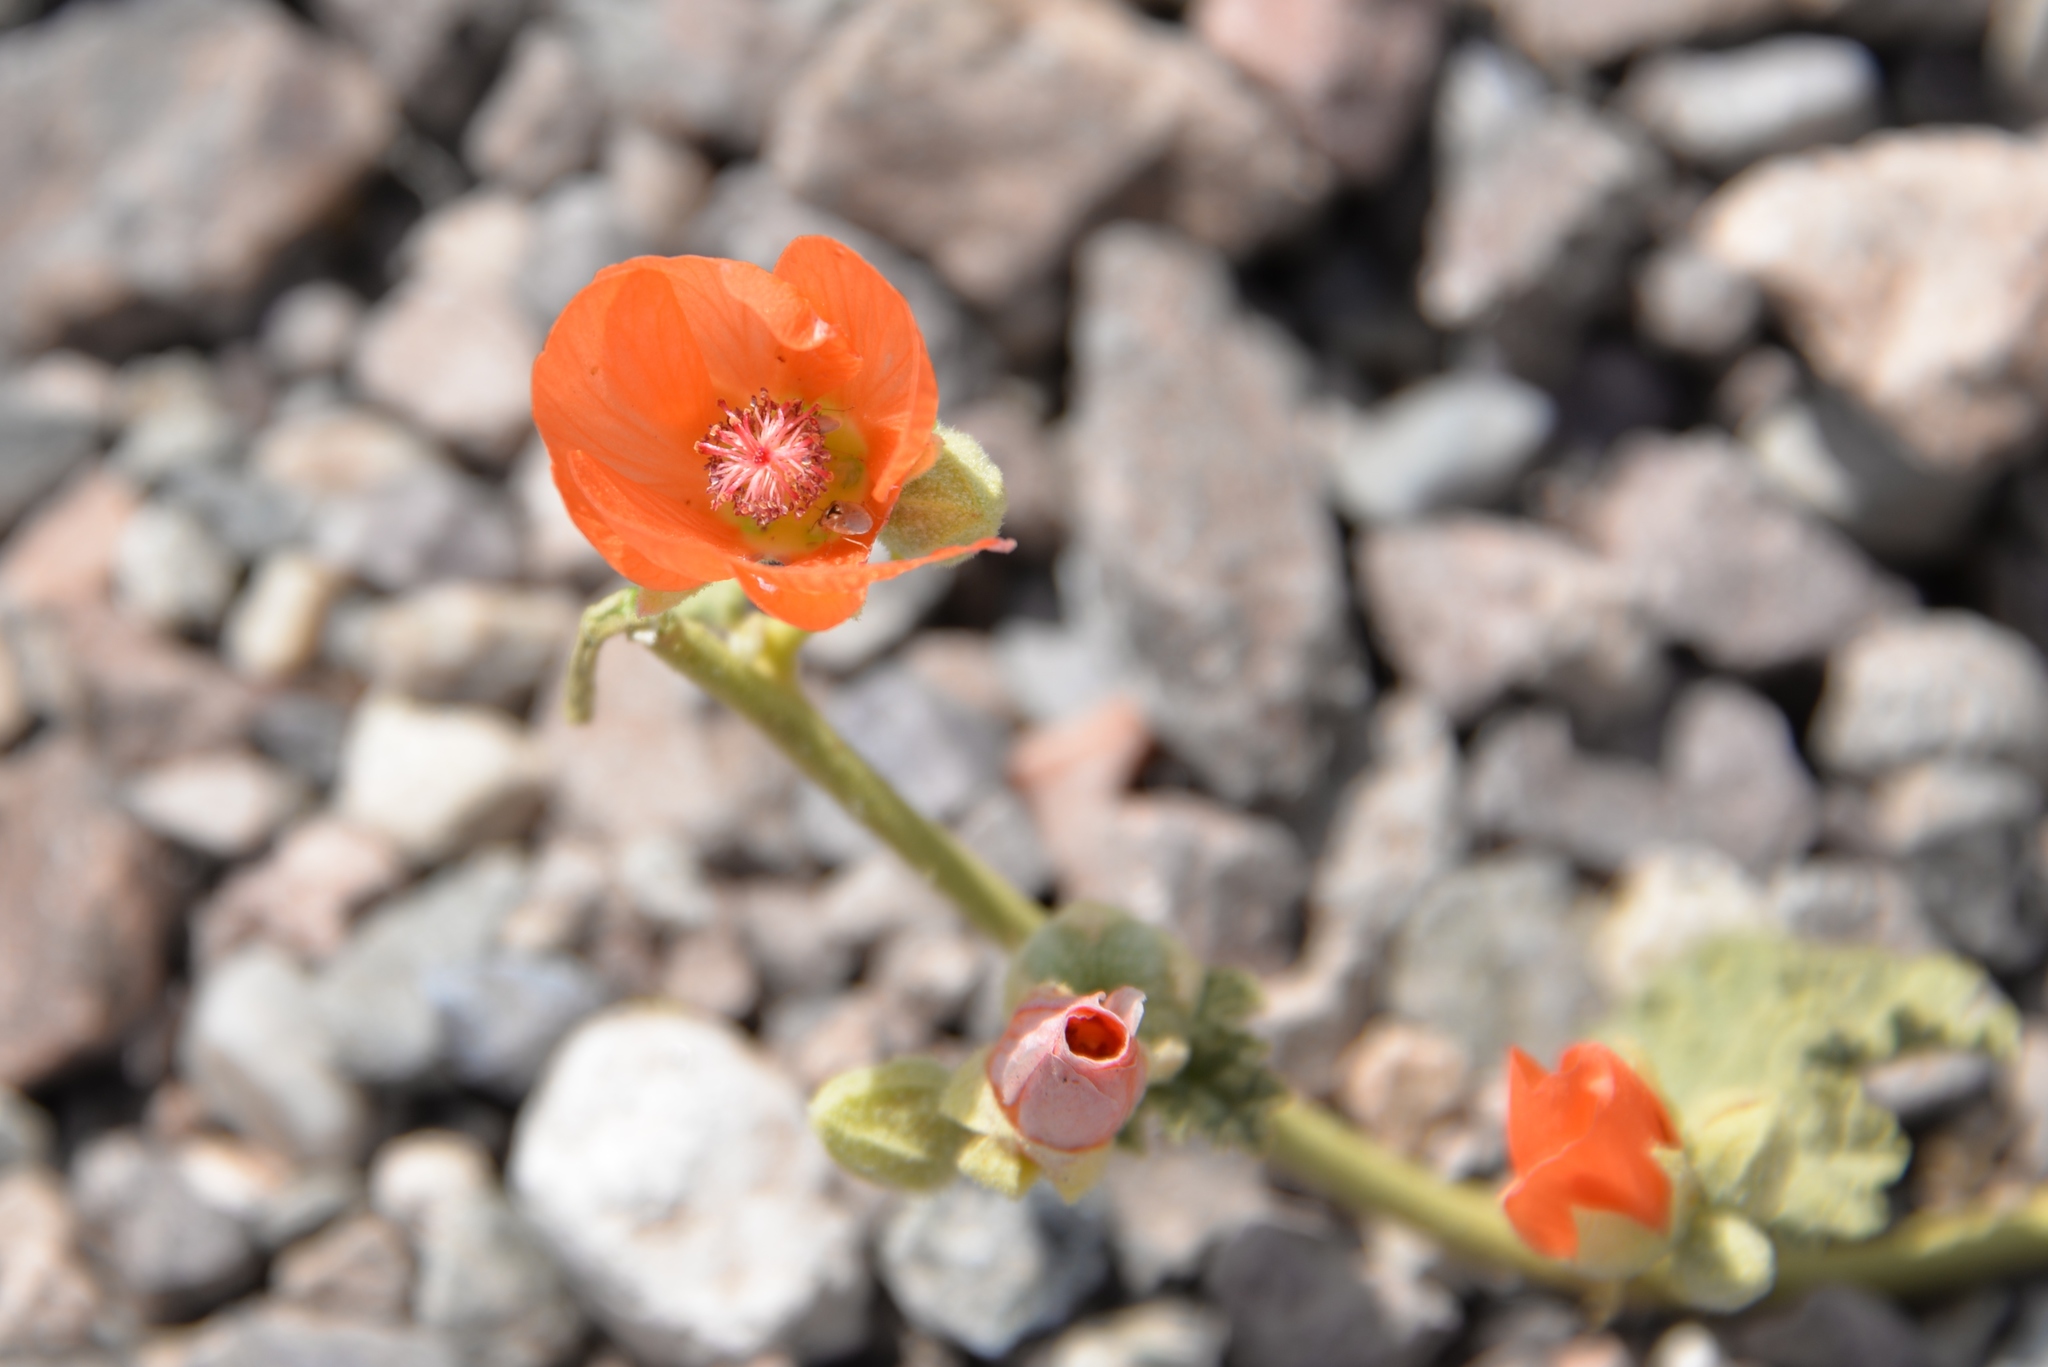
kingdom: Plantae
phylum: Tracheophyta
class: Magnoliopsida
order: Malvales
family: Malvaceae
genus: Sphaeralcea
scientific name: Sphaeralcea ambigua
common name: Apricot globe-mallow
